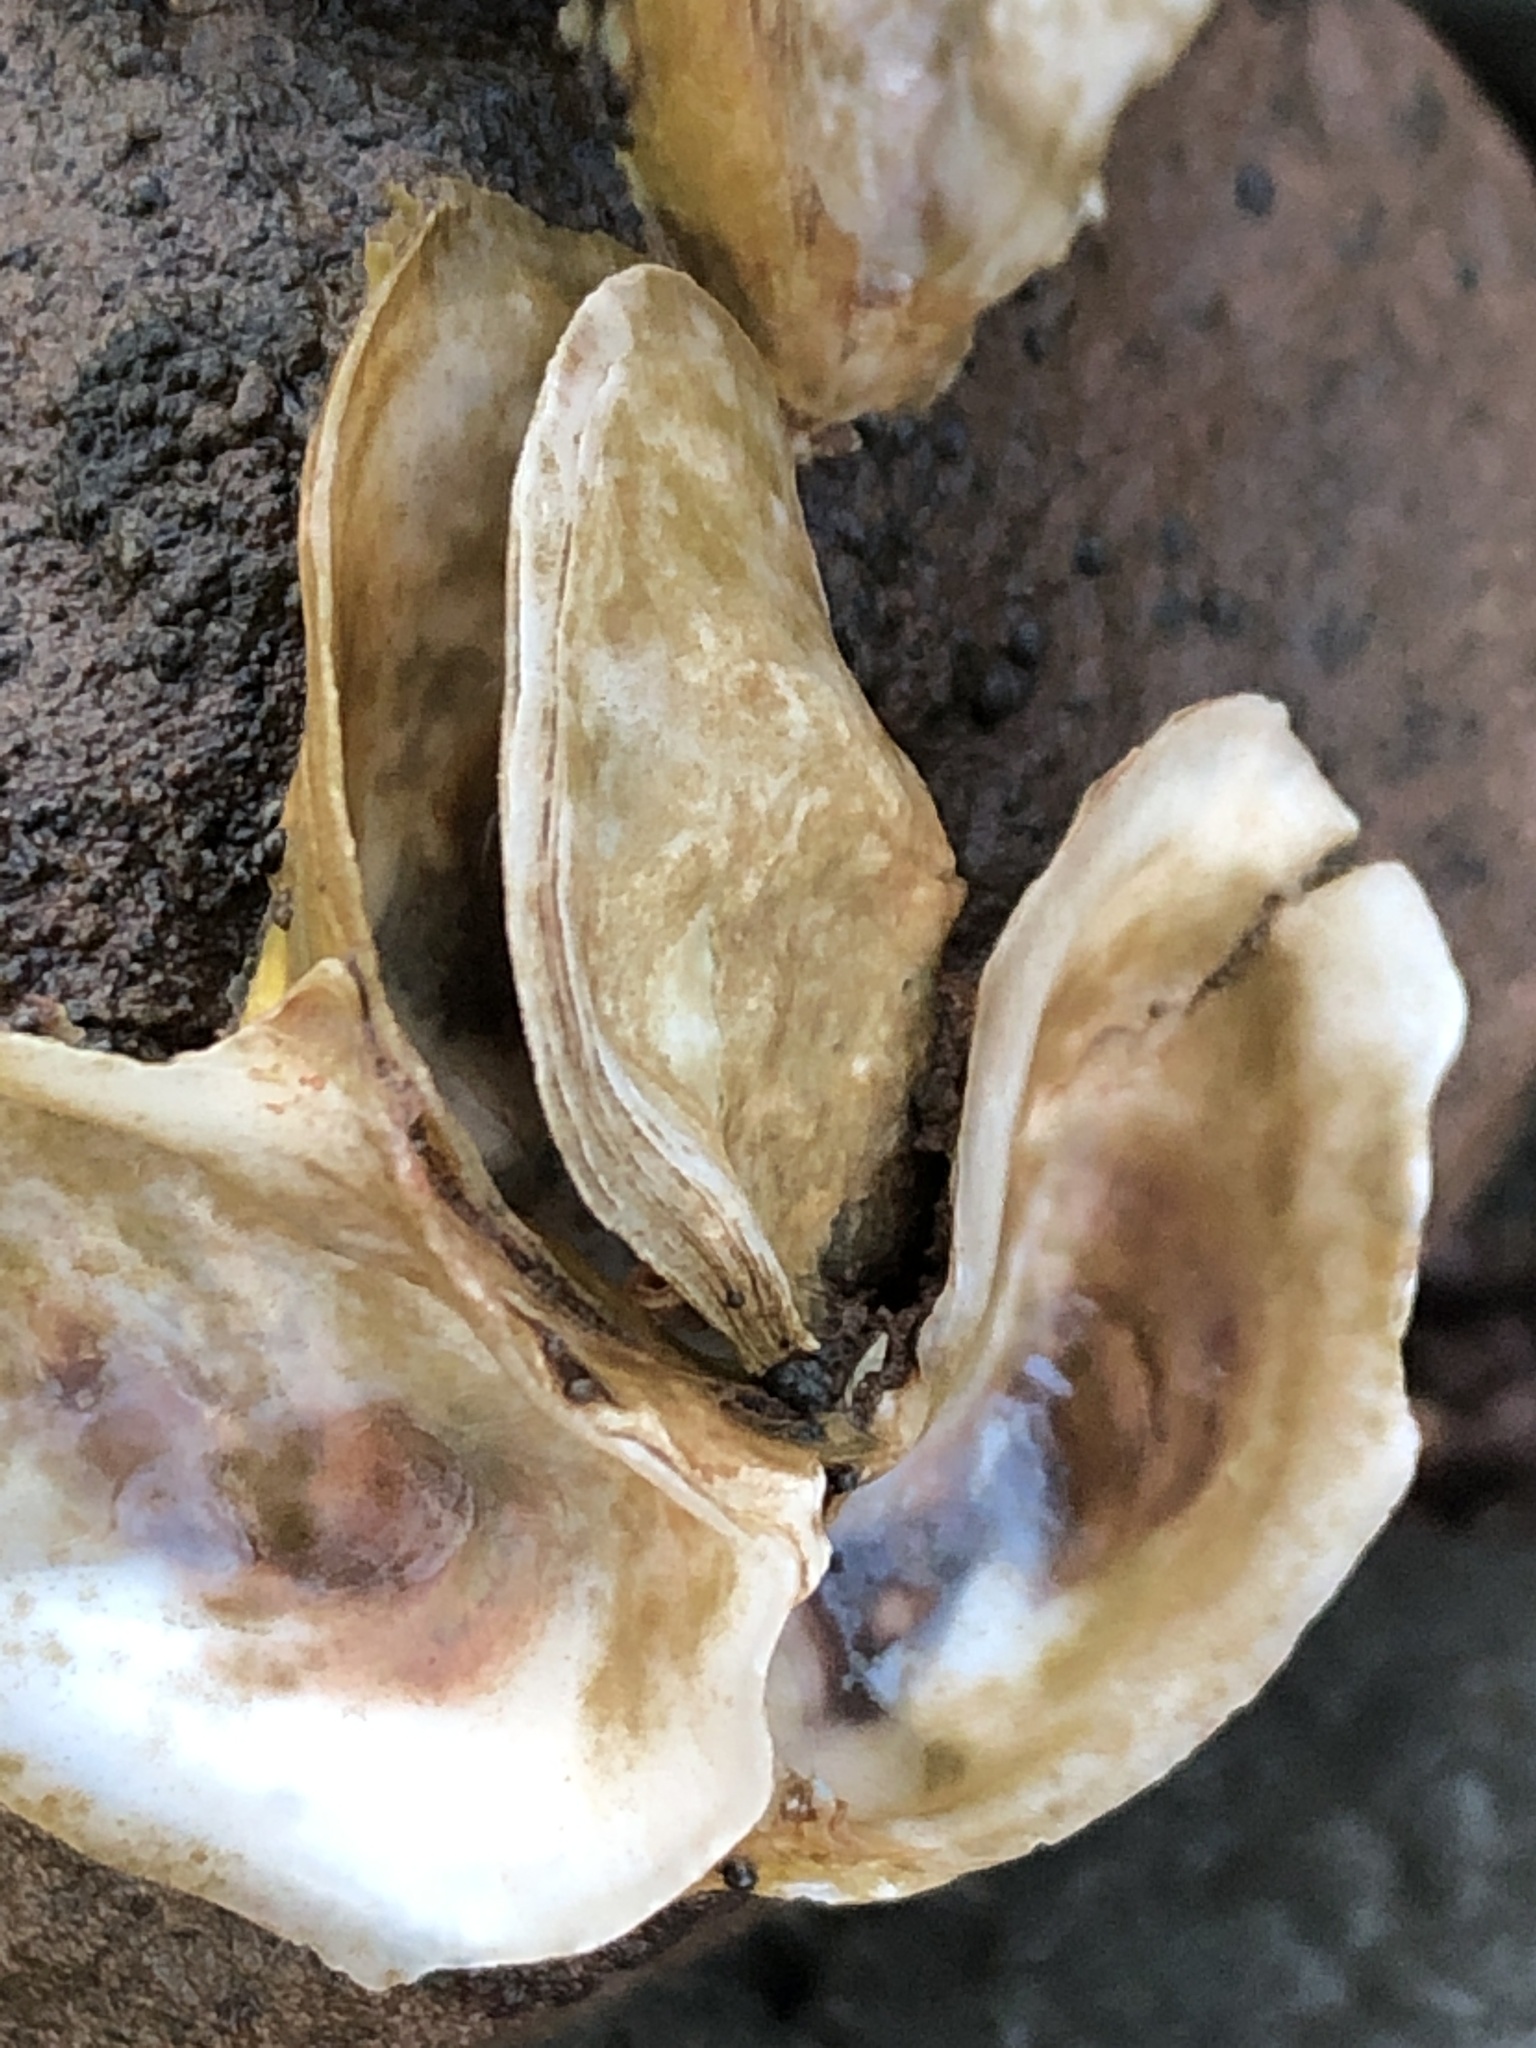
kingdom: Animalia
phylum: Mollusca
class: Bivalvia
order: Ostreida
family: Ostreidae
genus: Crassostrea
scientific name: Crassostrea virginica
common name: American oyster
